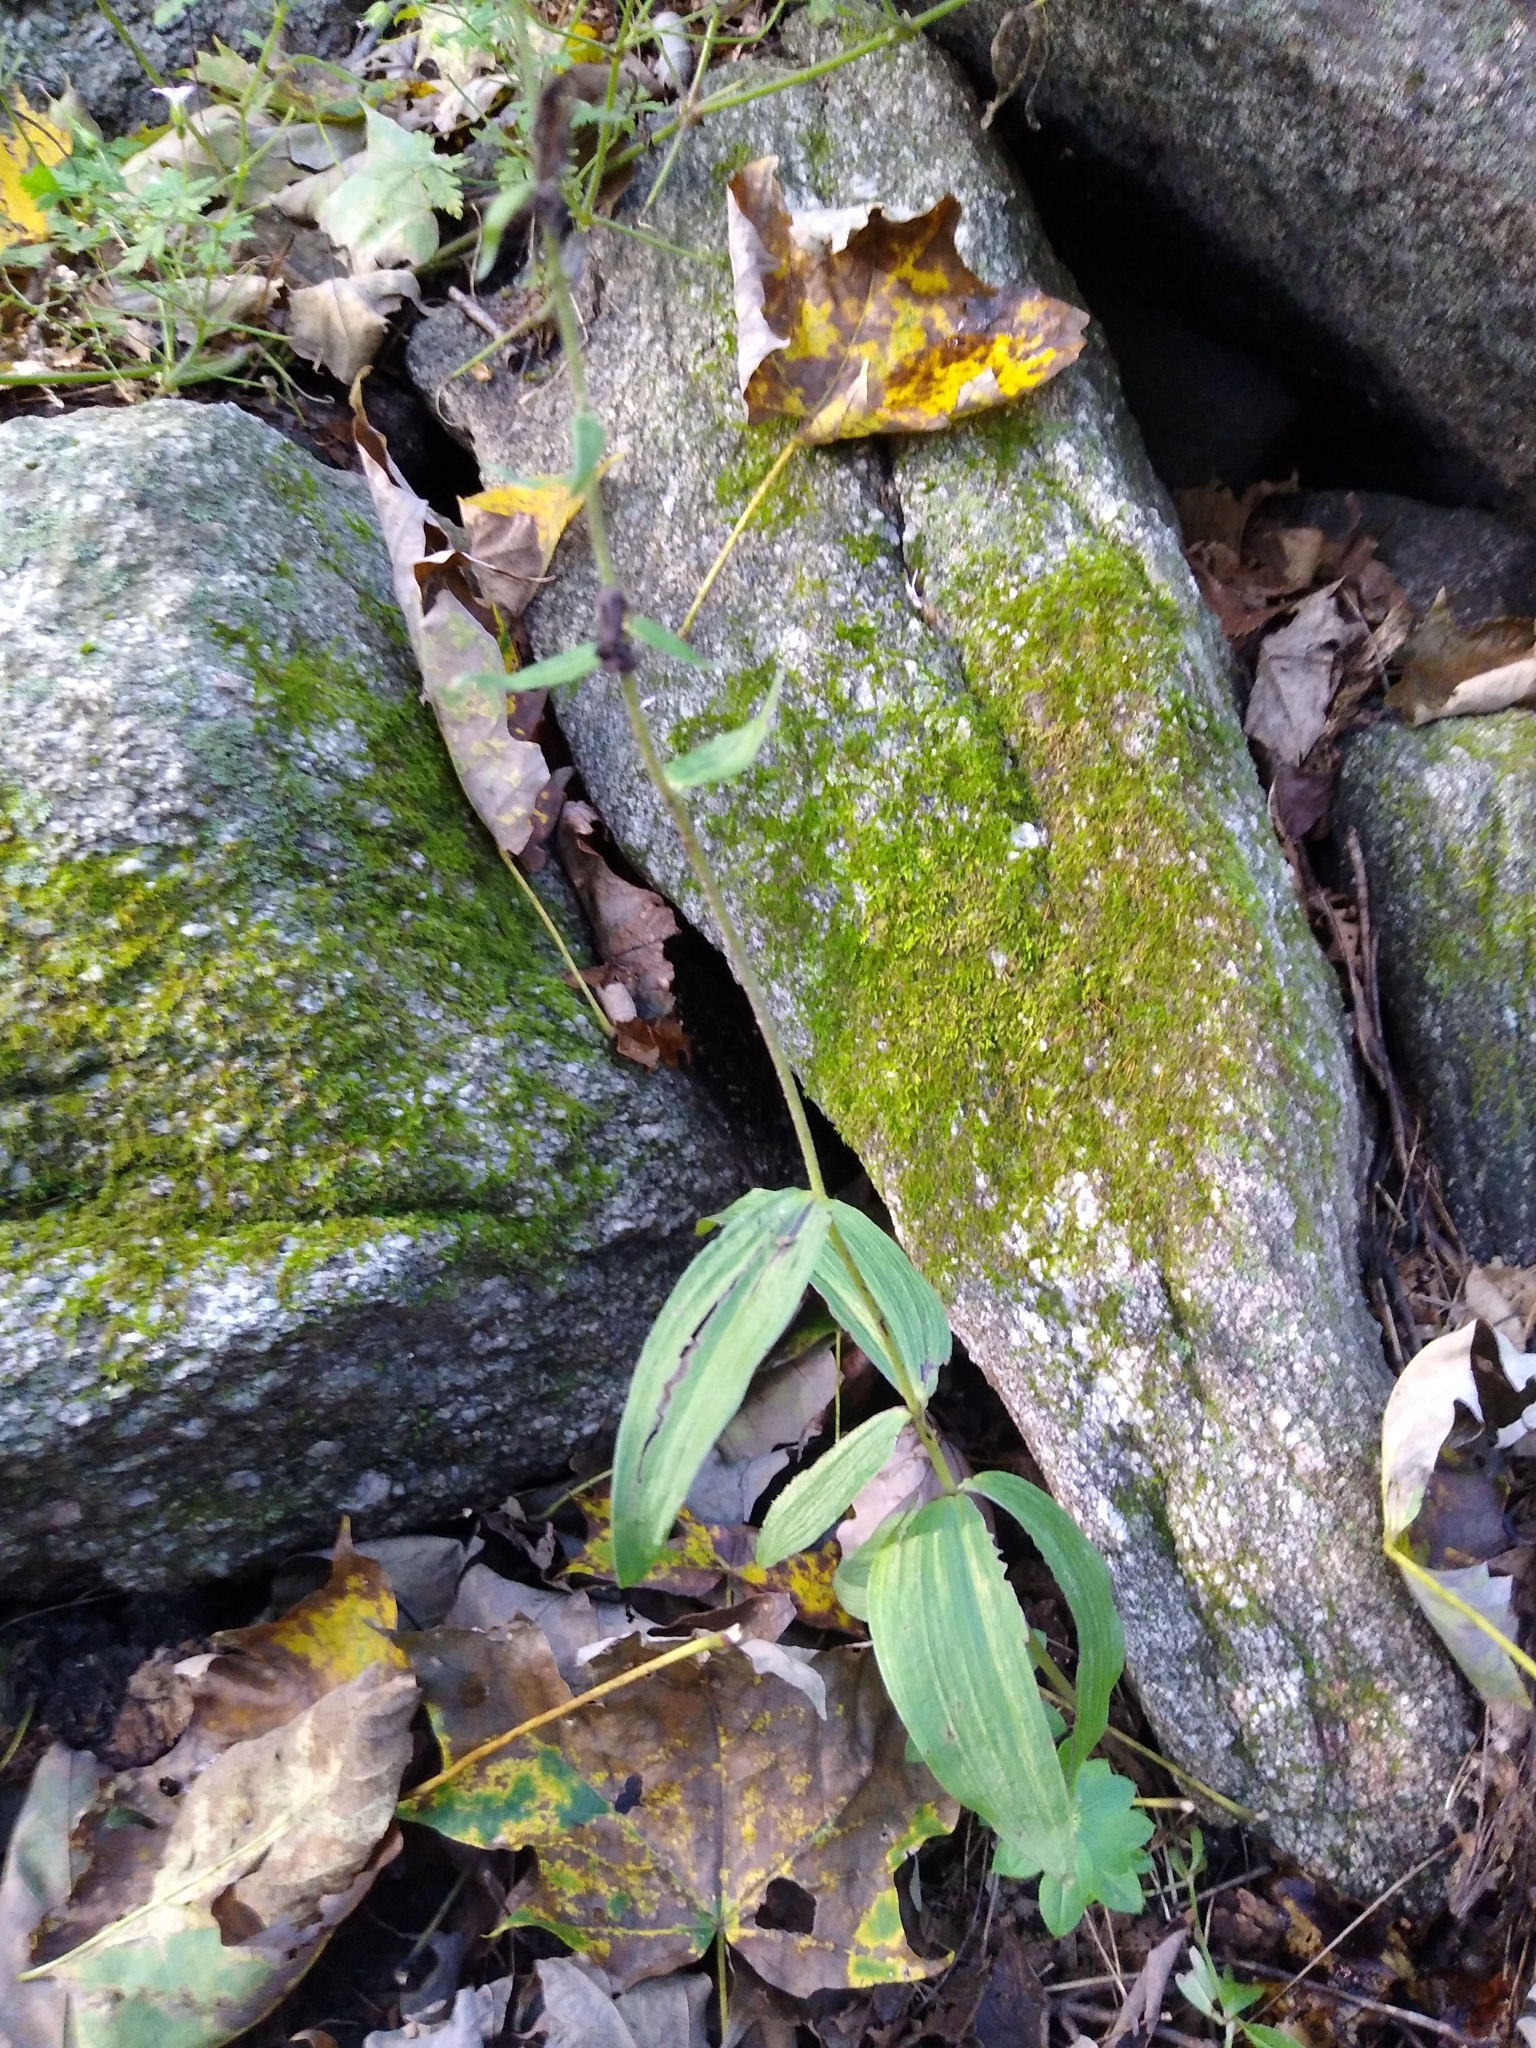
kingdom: Plantae
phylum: Tracheophyta
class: Liliopsida
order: Asparagales
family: Orchidaceae
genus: Epipactis
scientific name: Epipactis helleborine
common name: Broad-leaved helleborine
